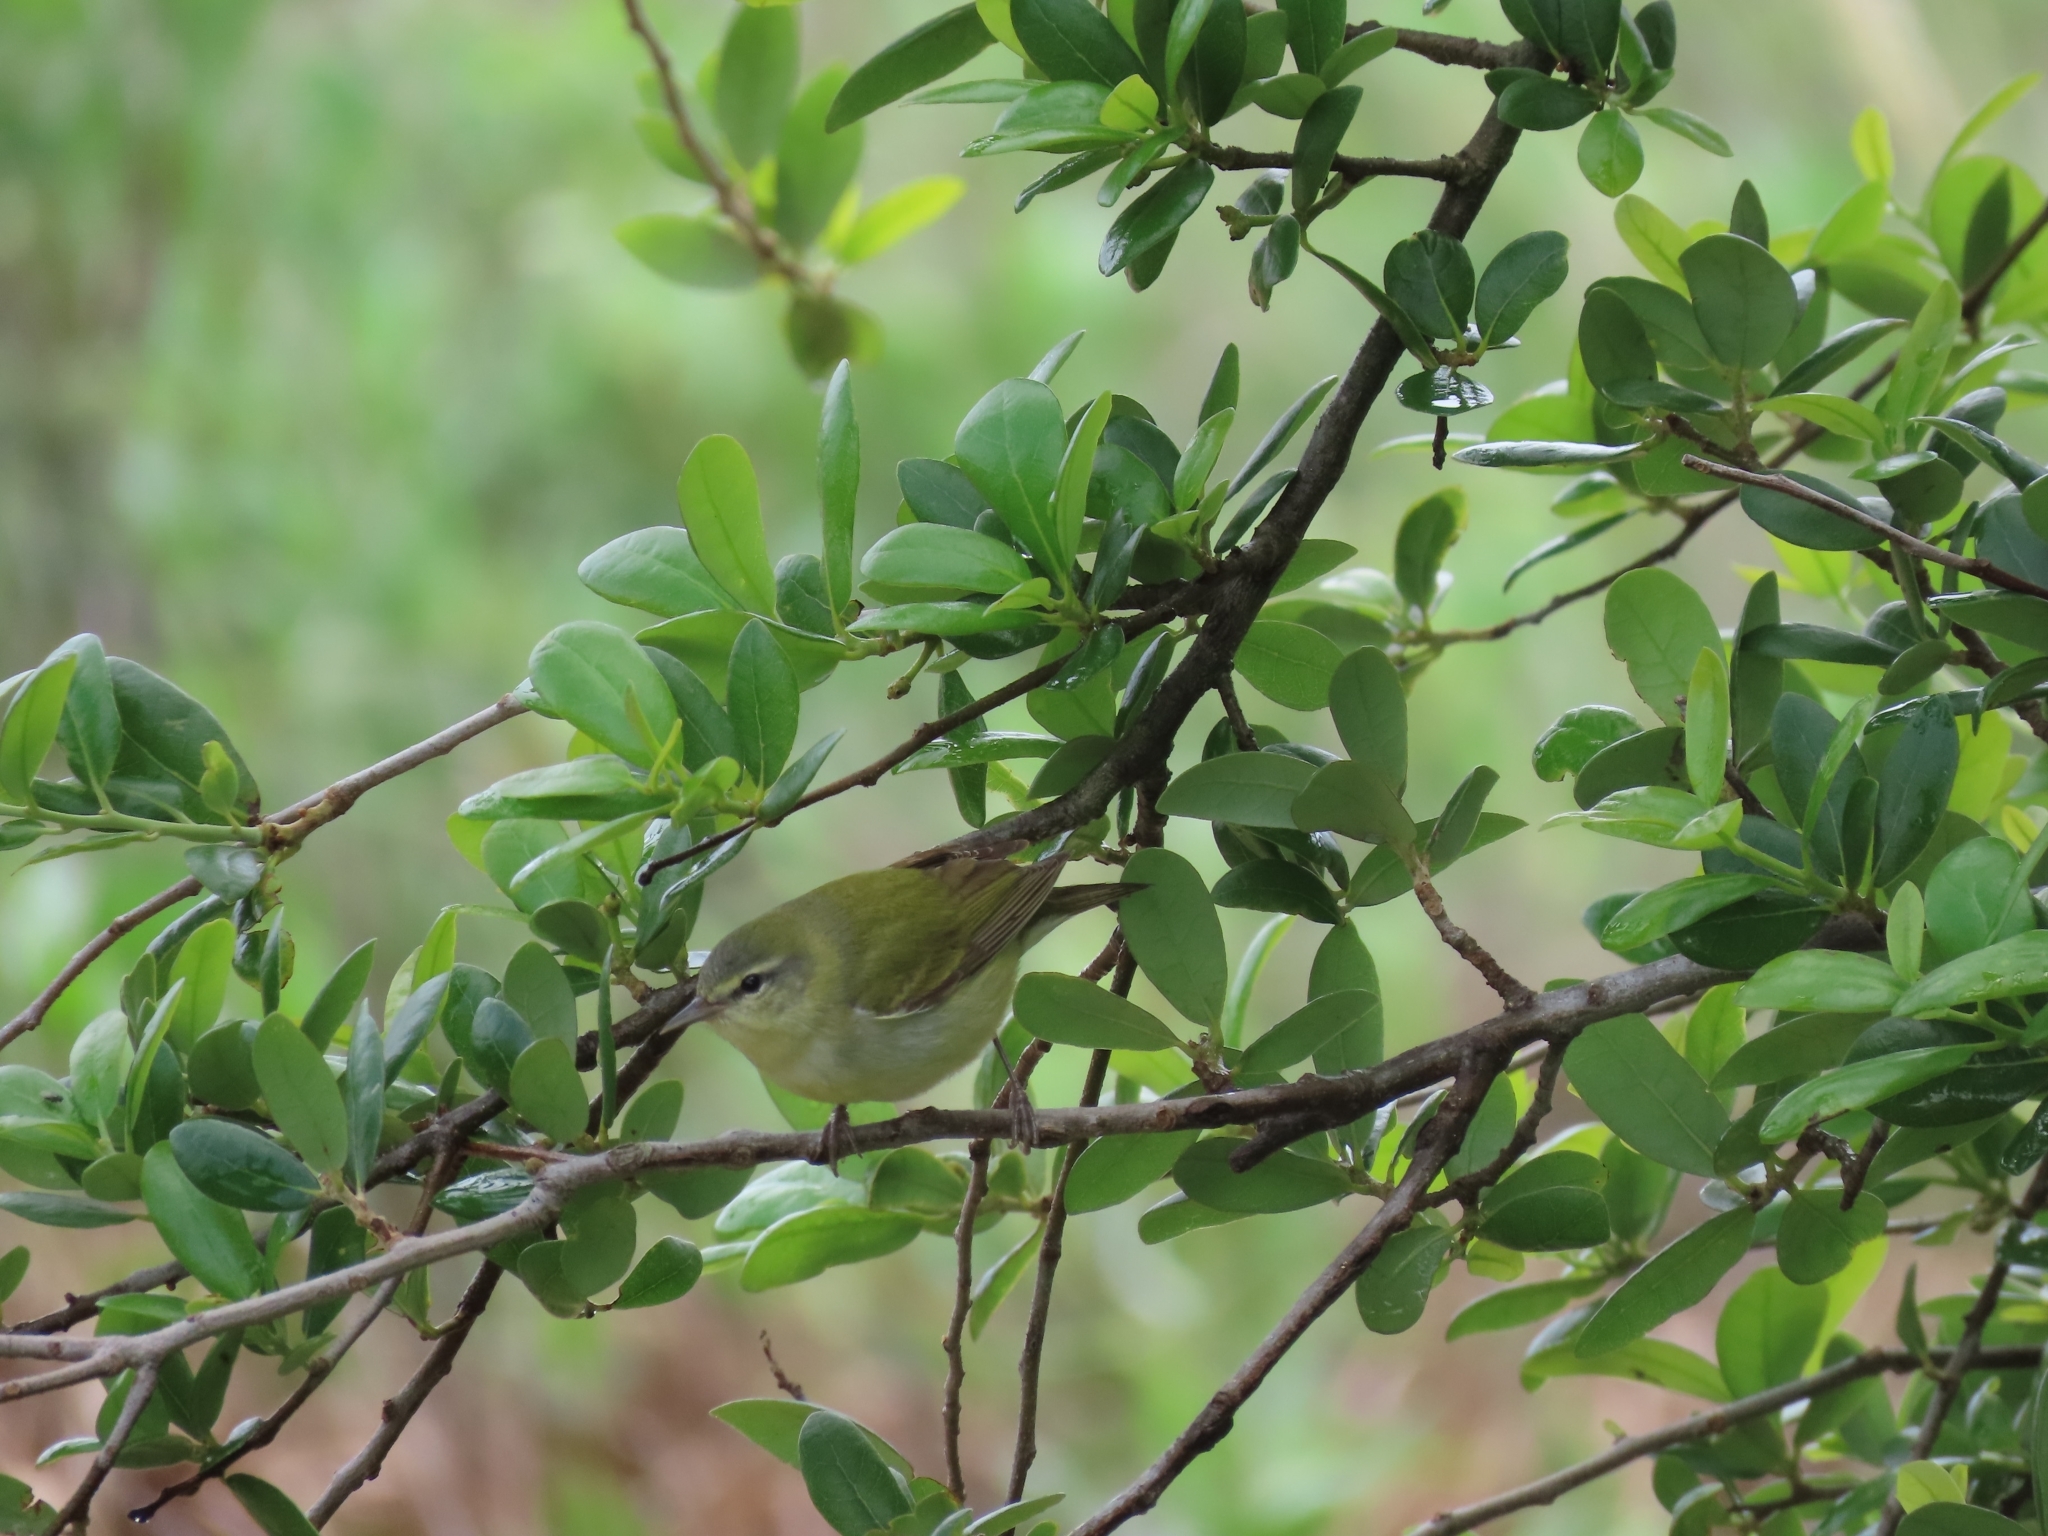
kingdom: Animalia
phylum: Chordata
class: Aves
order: Passeriformes
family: Parulidae
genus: Leiothlypis
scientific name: Leiothlypis peregrina
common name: Tennessee warbler
